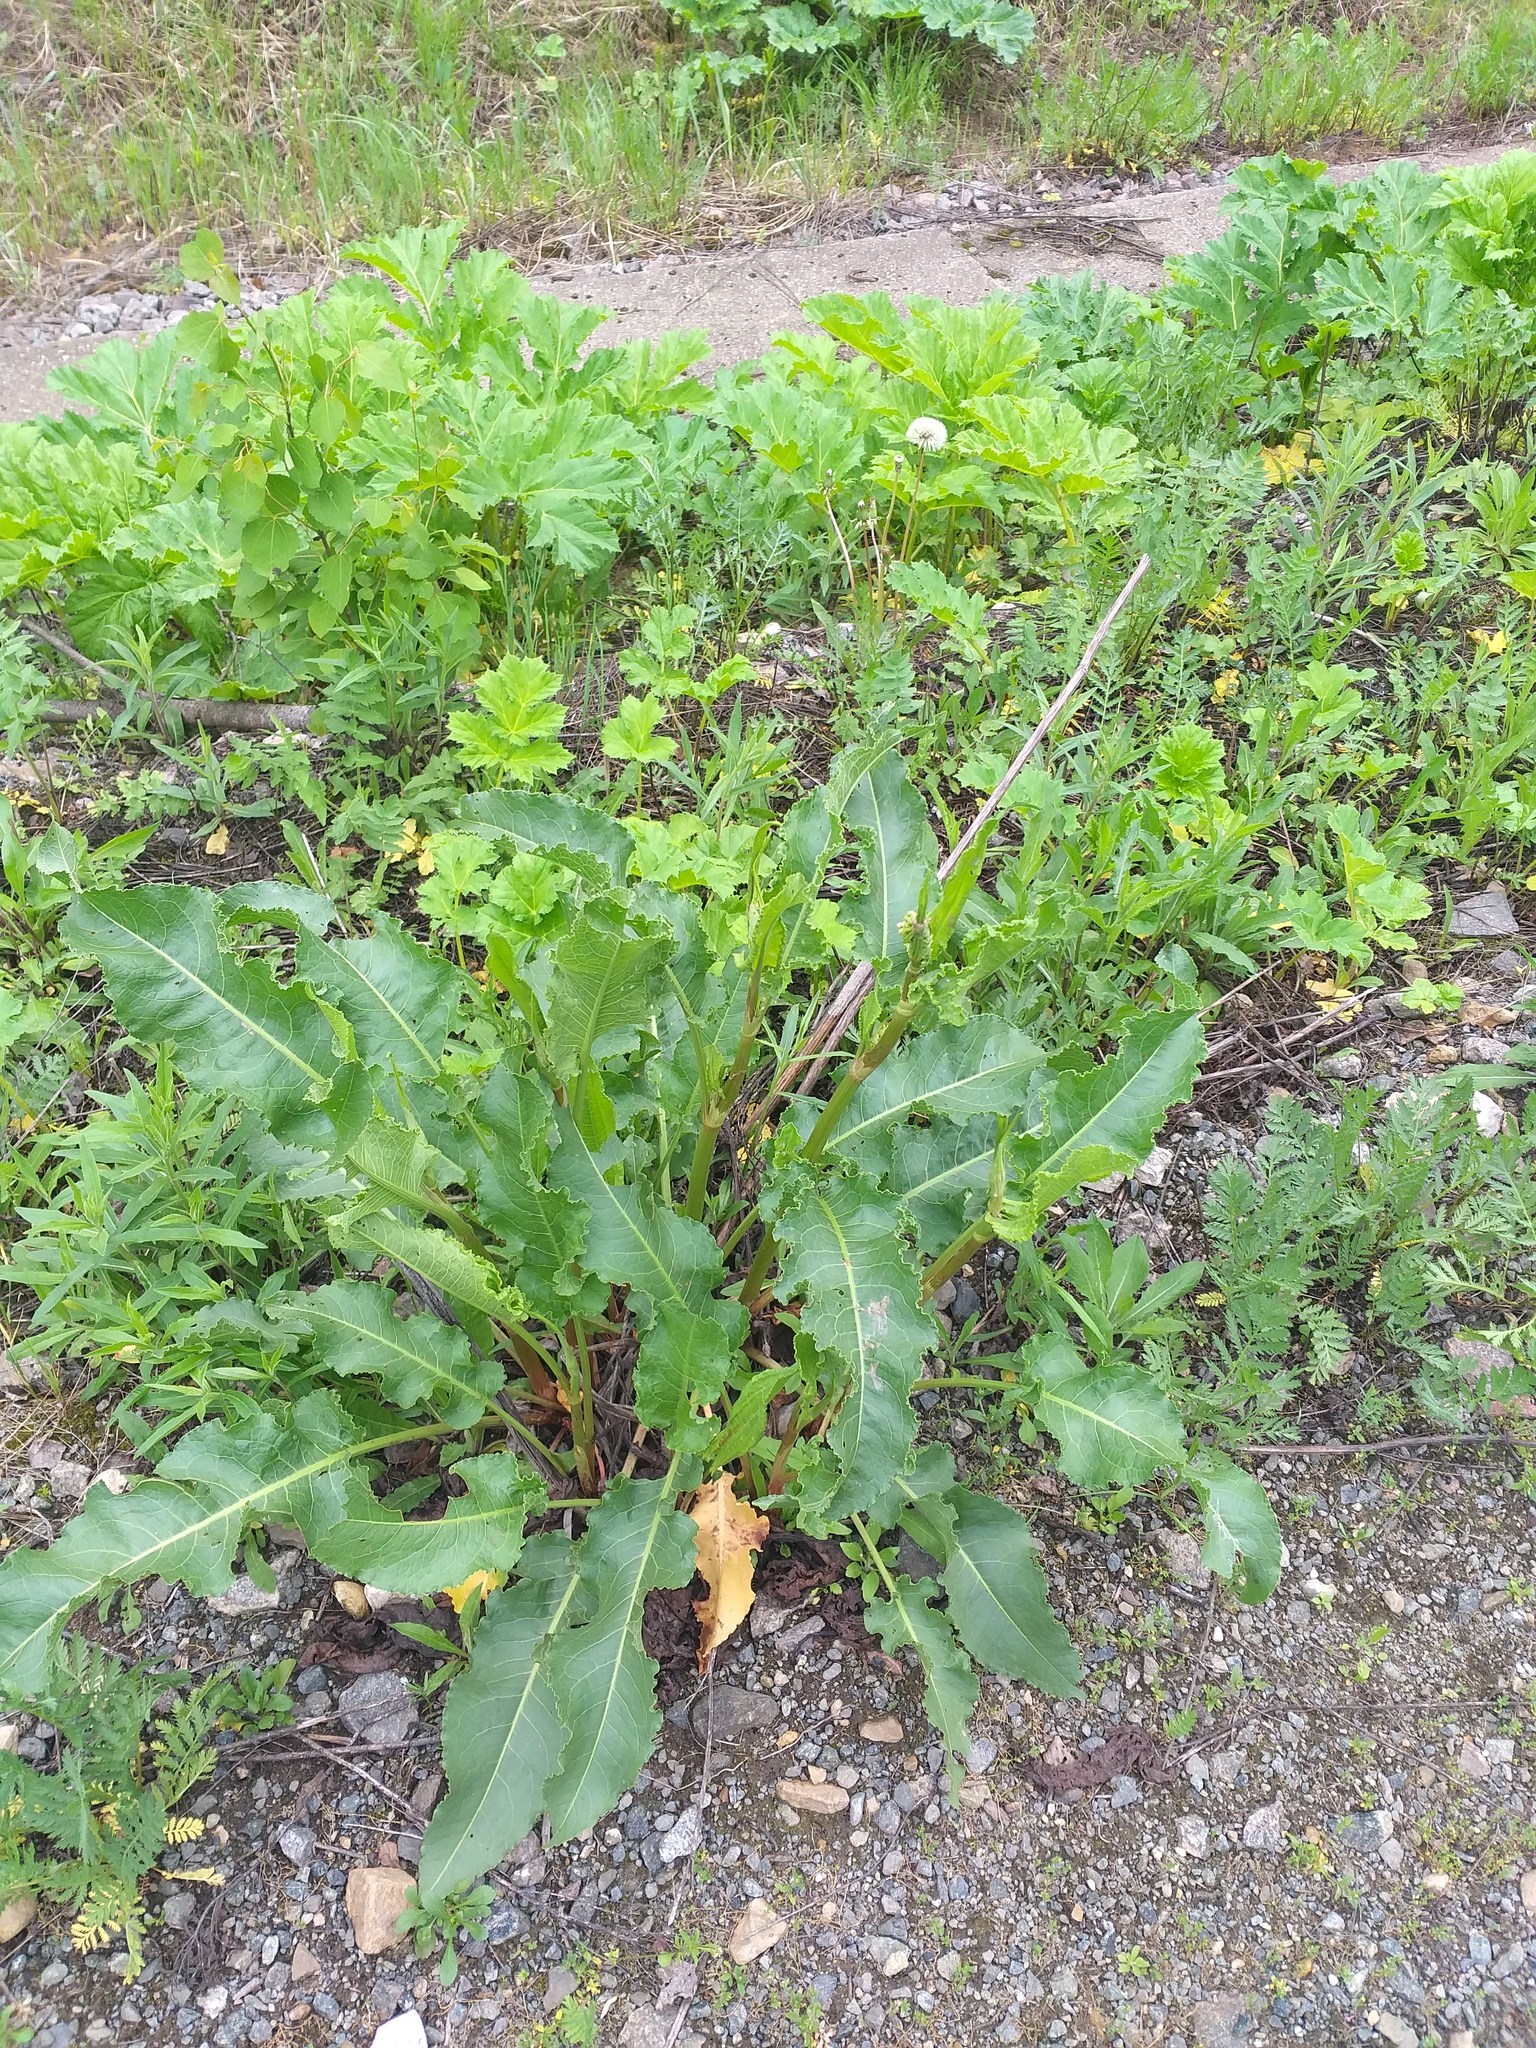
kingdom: Plantae
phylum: Tracheophyta
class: Magnoliopsida
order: Caryophyllales
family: Polygonaceae
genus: Rumex
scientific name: Rumex confertus
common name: Russian dock
